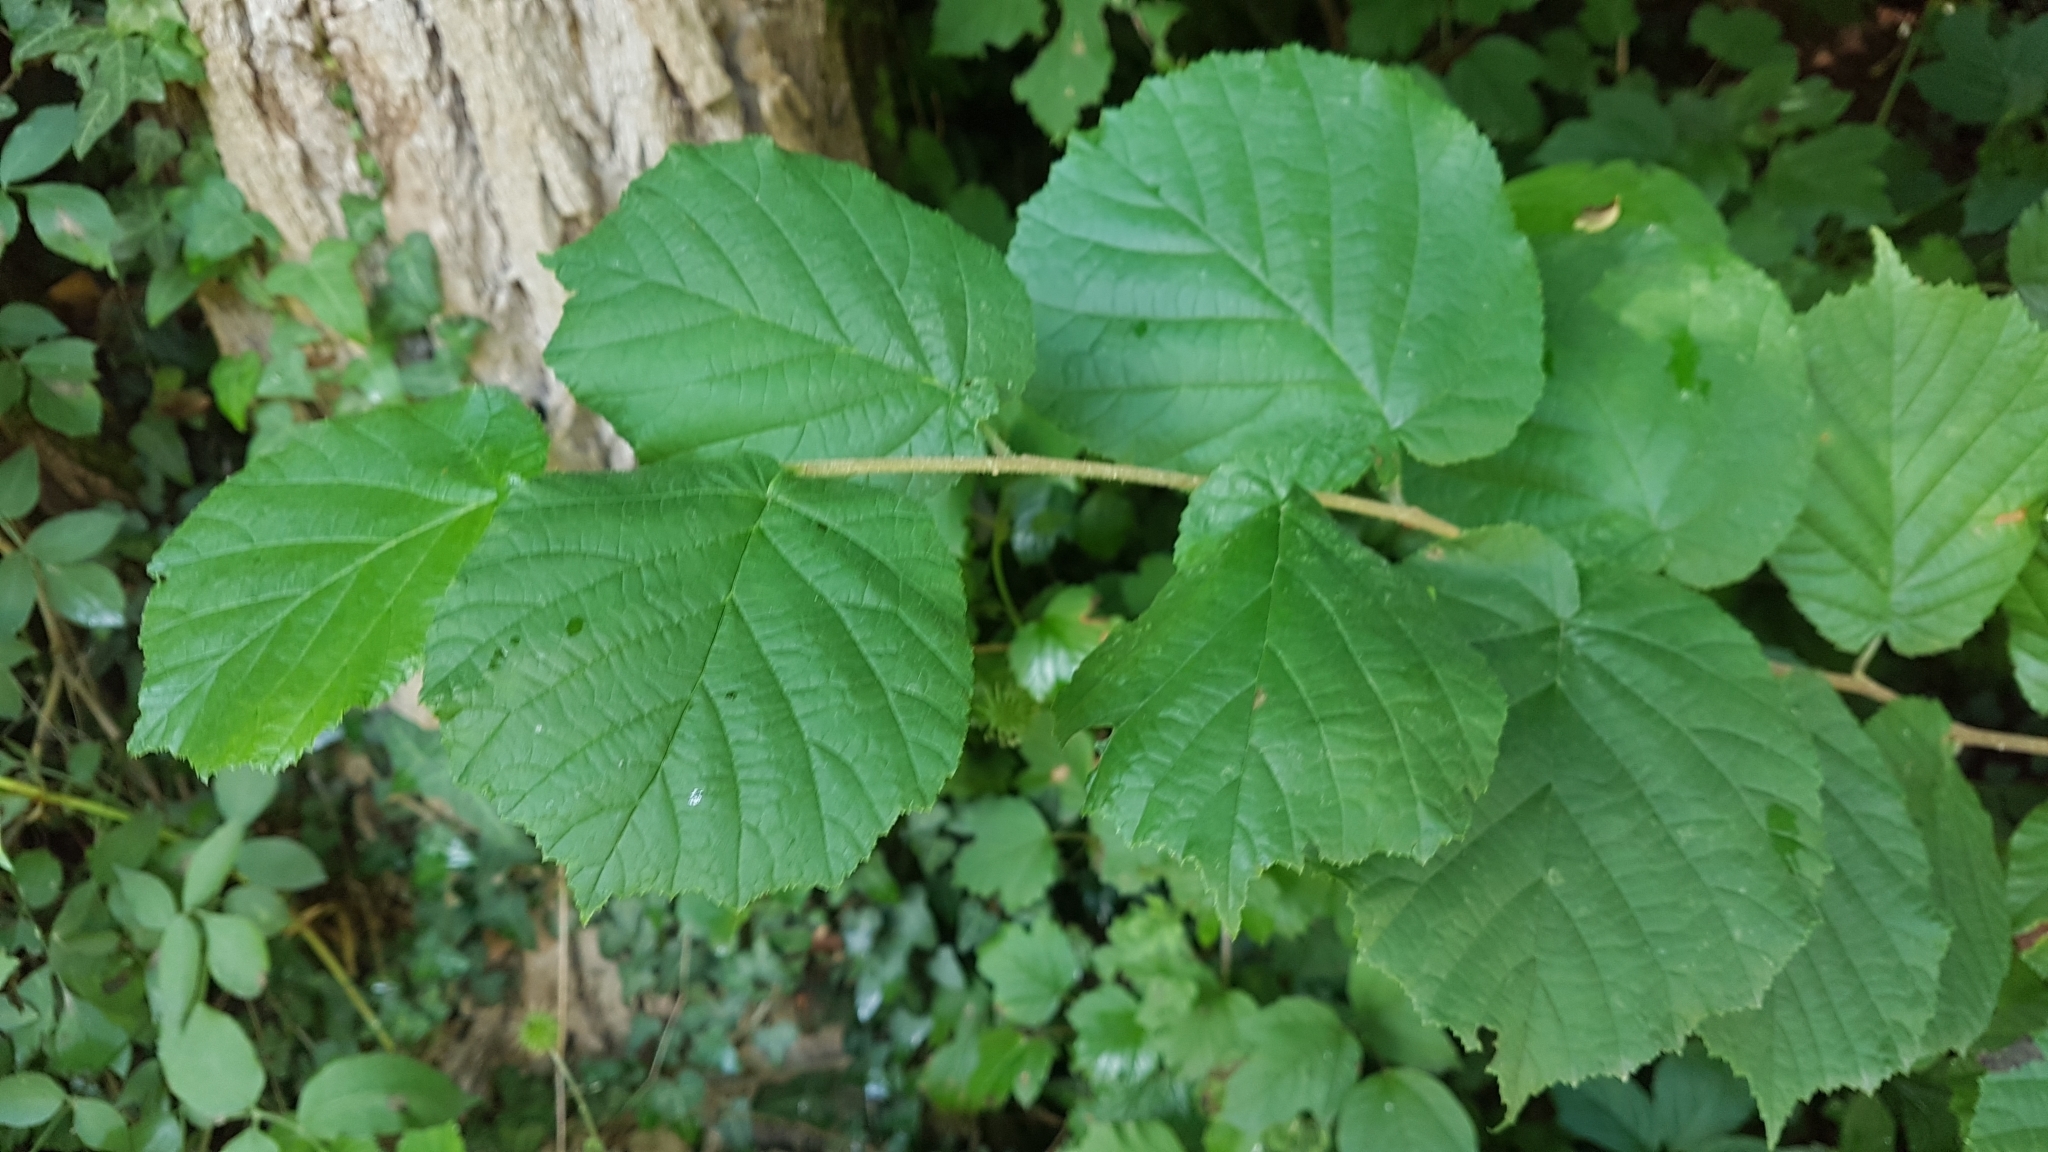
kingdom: Plantae
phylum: Tracheophyta
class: Magnoliopsida
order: Fagales
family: Betulaceae
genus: Corylus
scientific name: Corylus avellana
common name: European hazel
